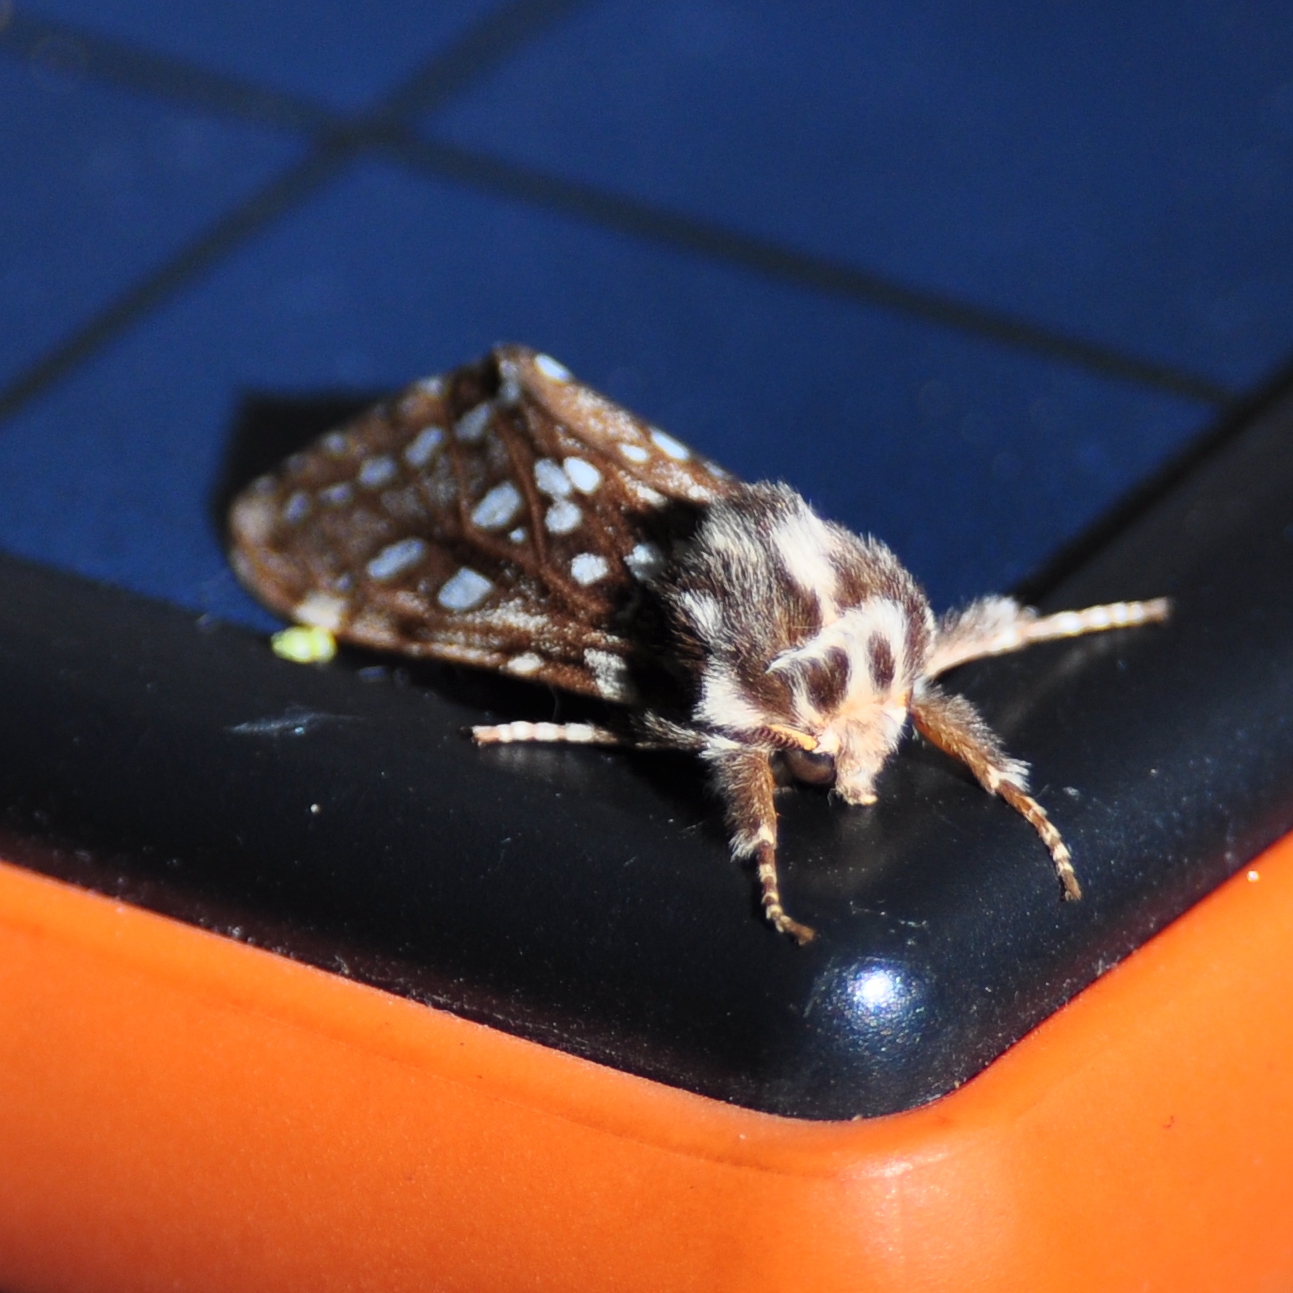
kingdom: Animalia
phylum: Arthropoda
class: Insecta
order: Lepidoptera
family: Erebidae
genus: Lophocampa
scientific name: Lophocampa argentata
